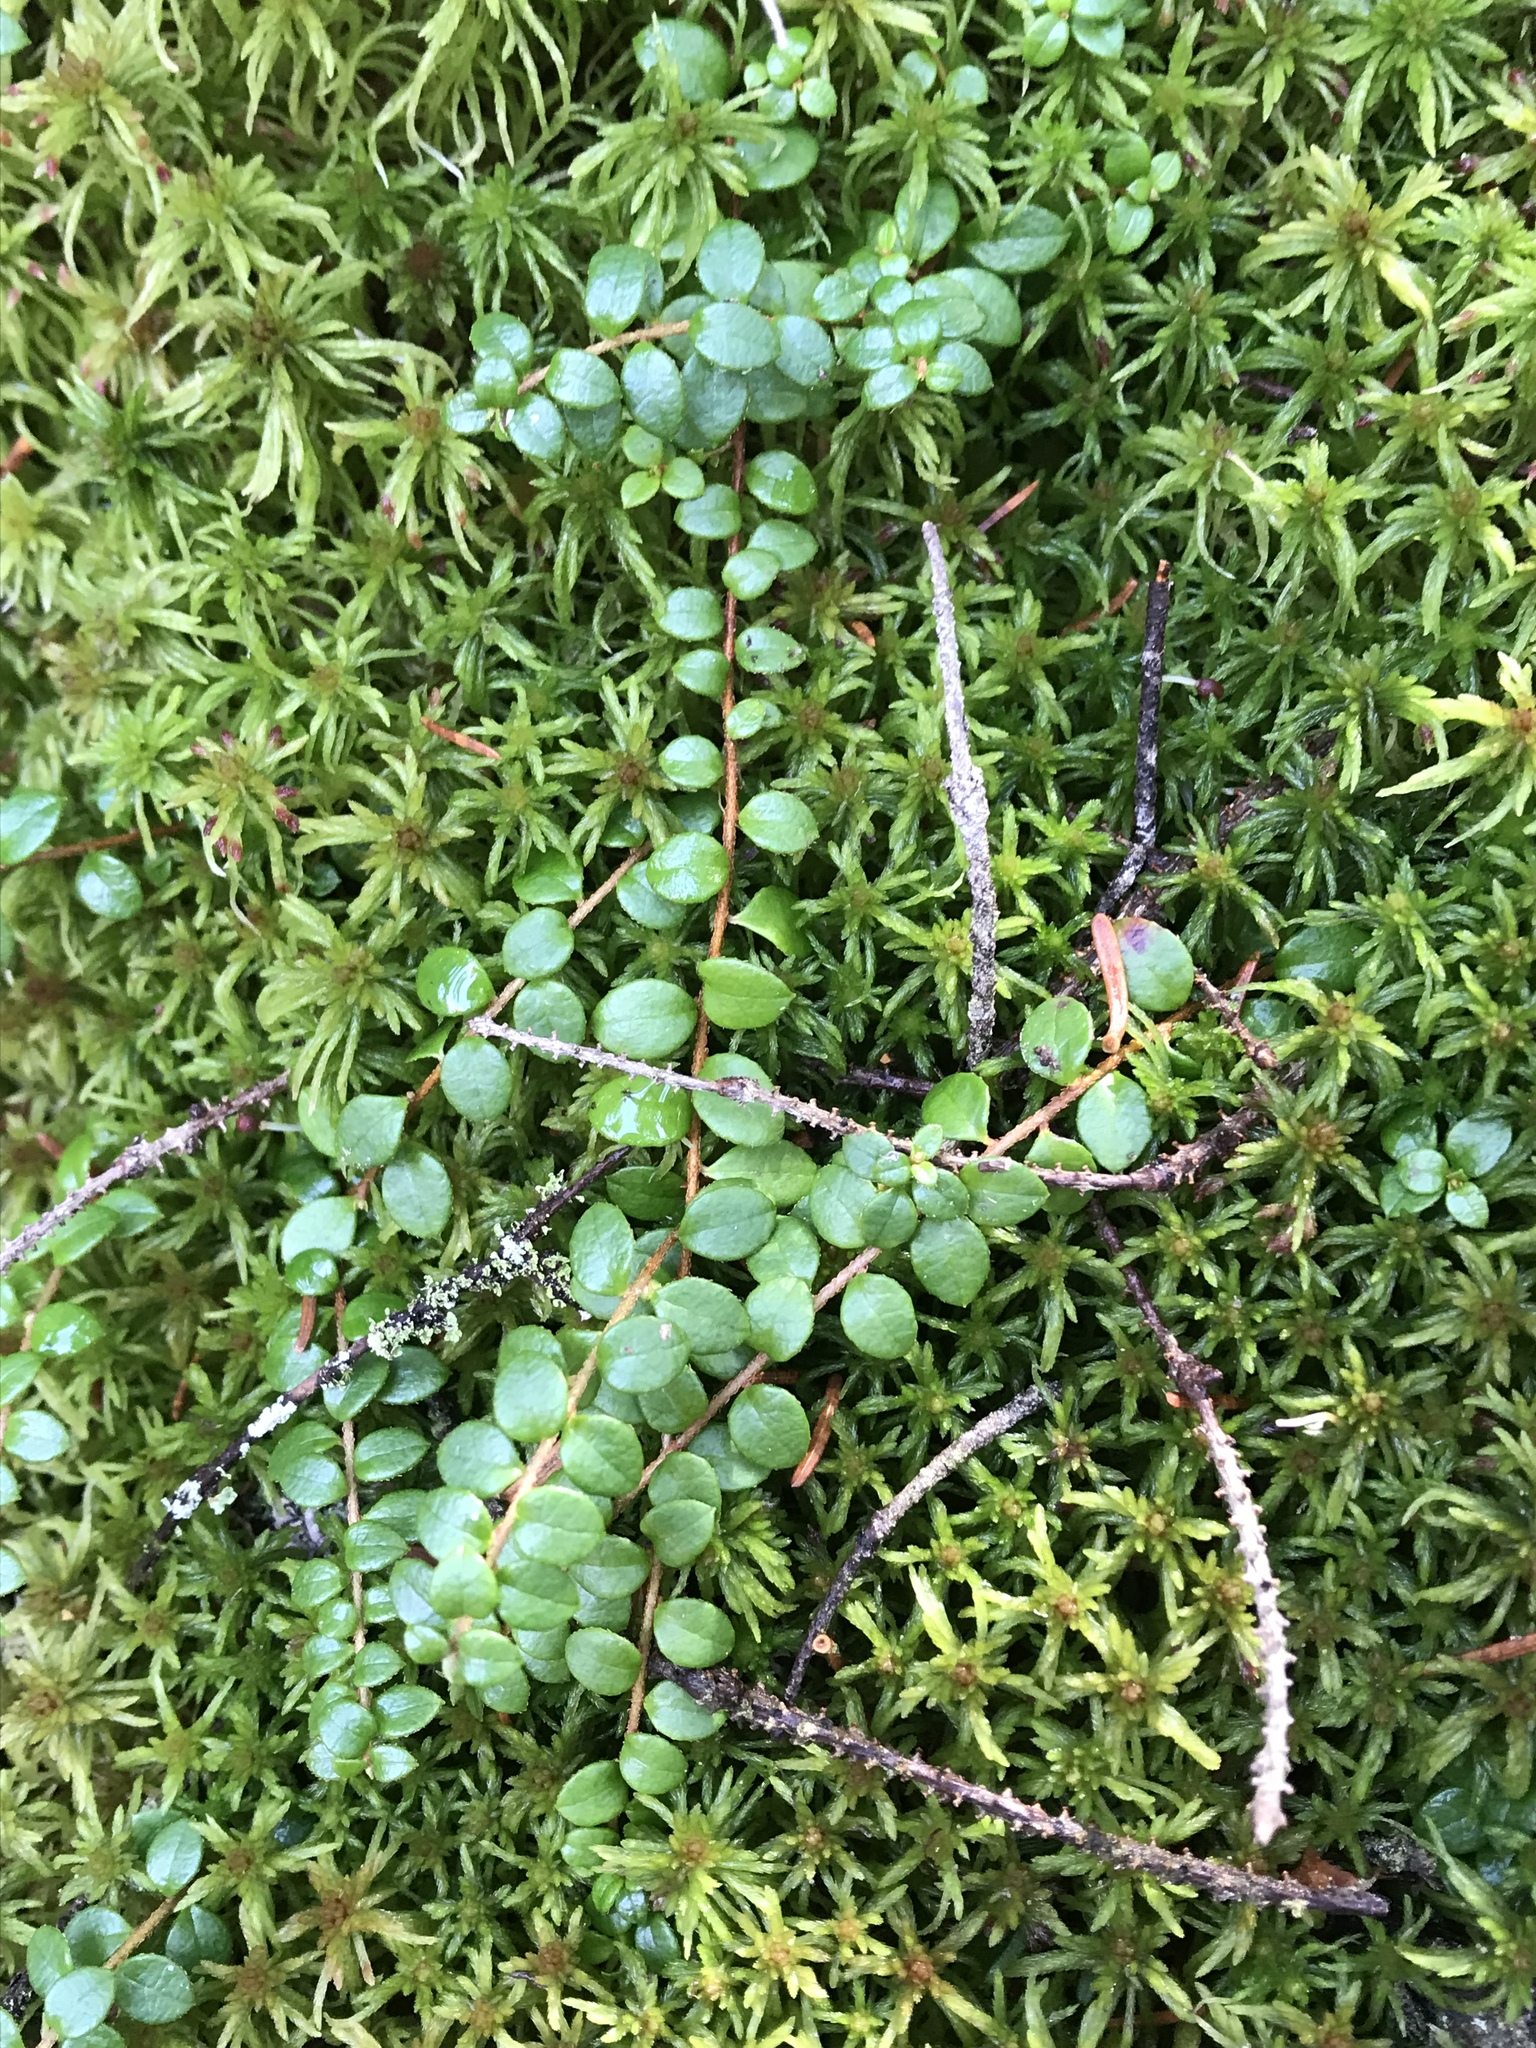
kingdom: Plantae
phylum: Tracheophyta
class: Magnoliopsida
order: Ericales
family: Ericaceae
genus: Gaultheria
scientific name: Gaultheria hispidula
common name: Cancer wintergreen
